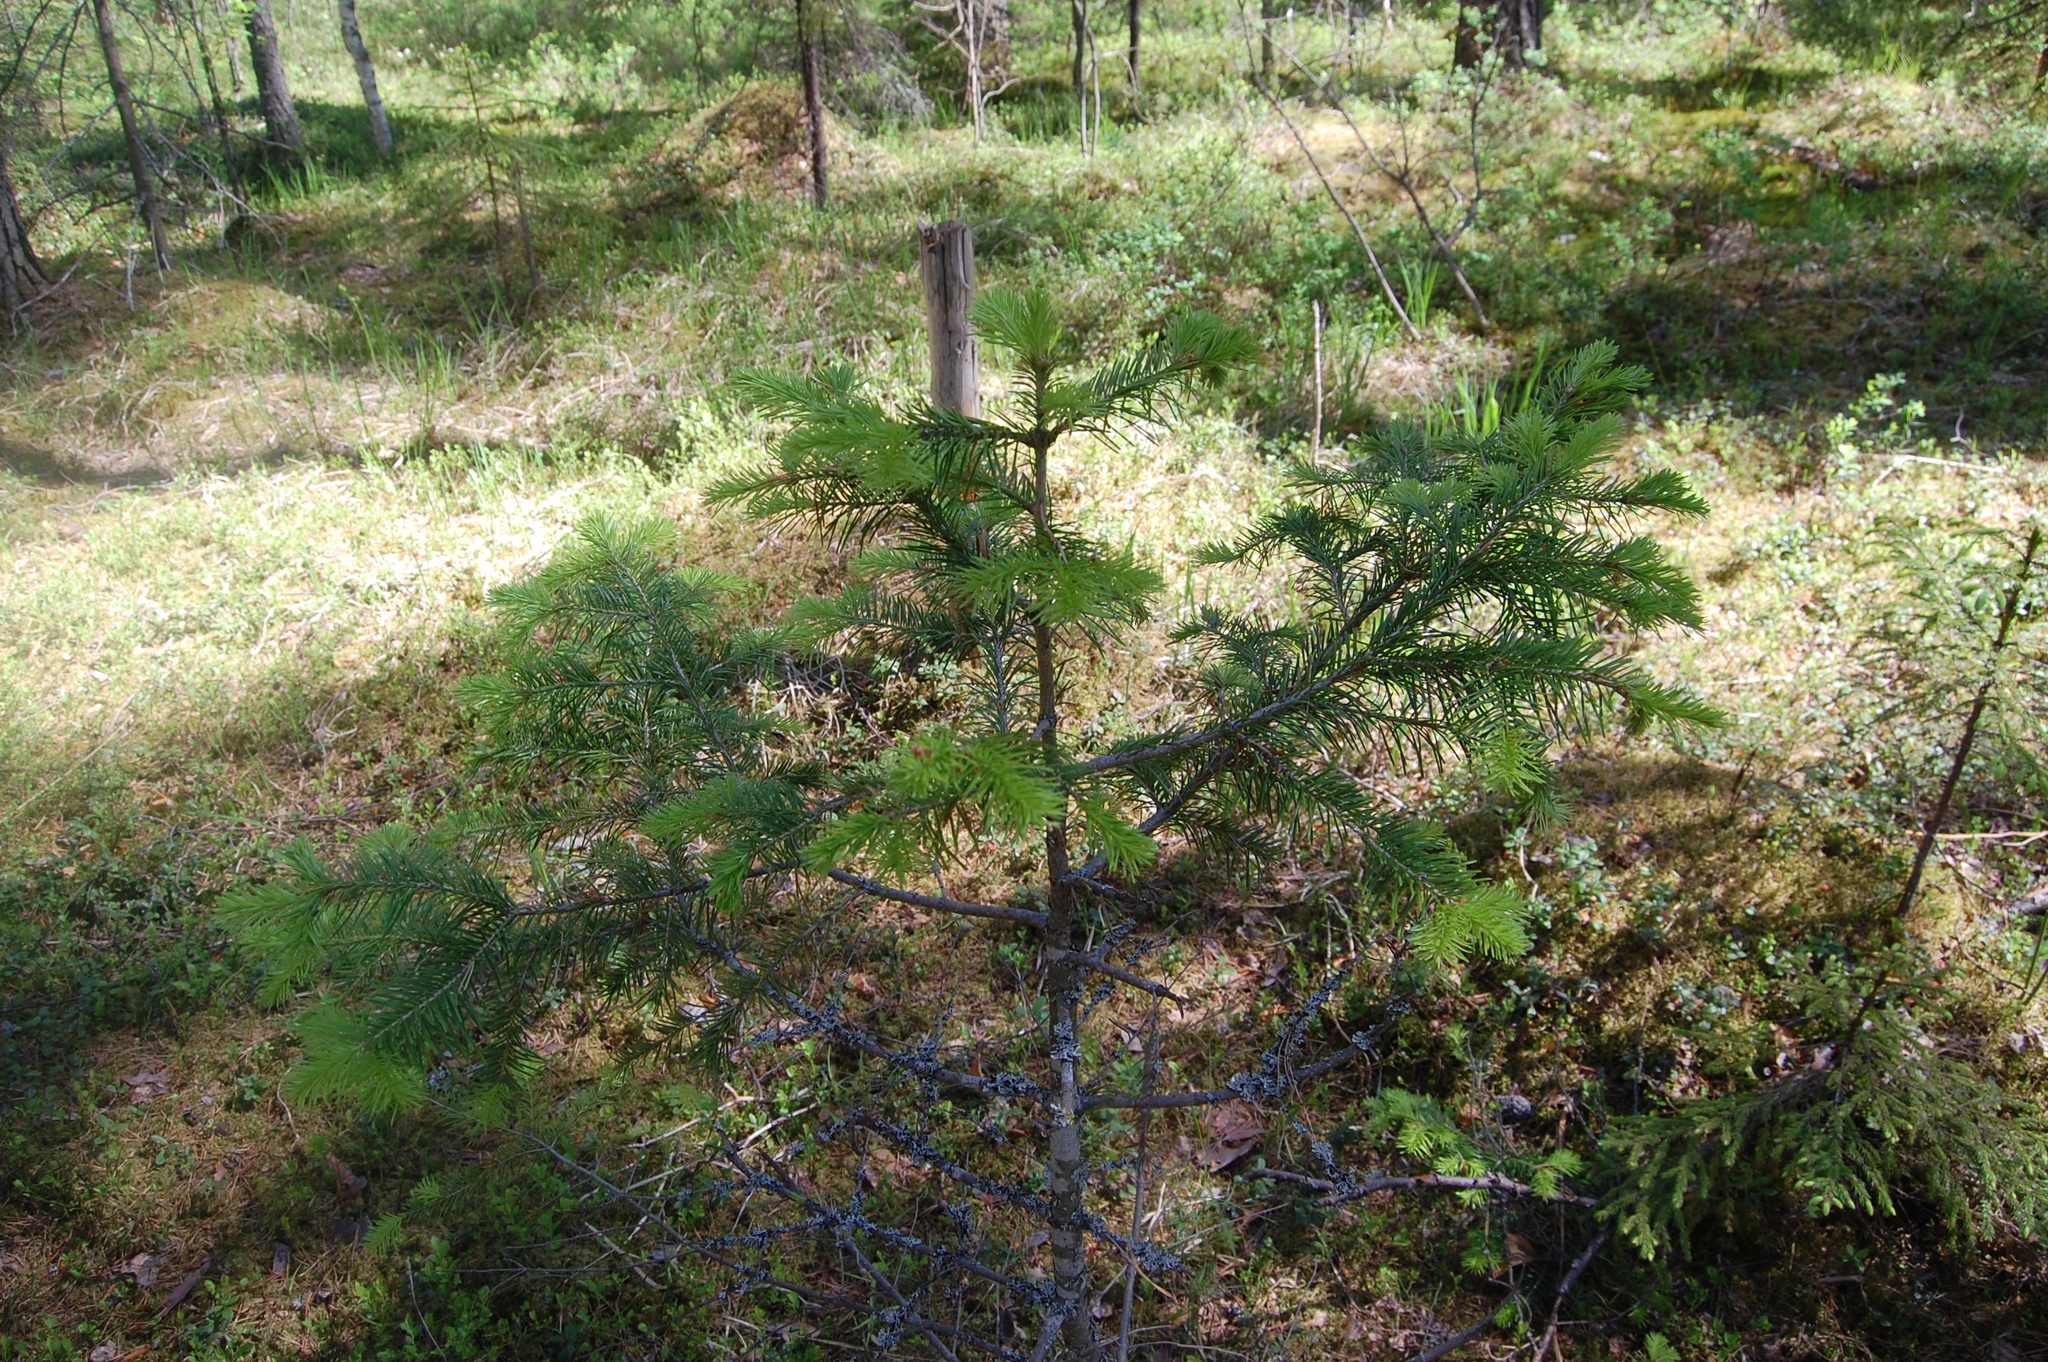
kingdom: Plantae
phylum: Tracheophyta
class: Pinopsida
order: Pinales
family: Pinaceae
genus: Abies
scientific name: Abies sibirica
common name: Siberian fir
